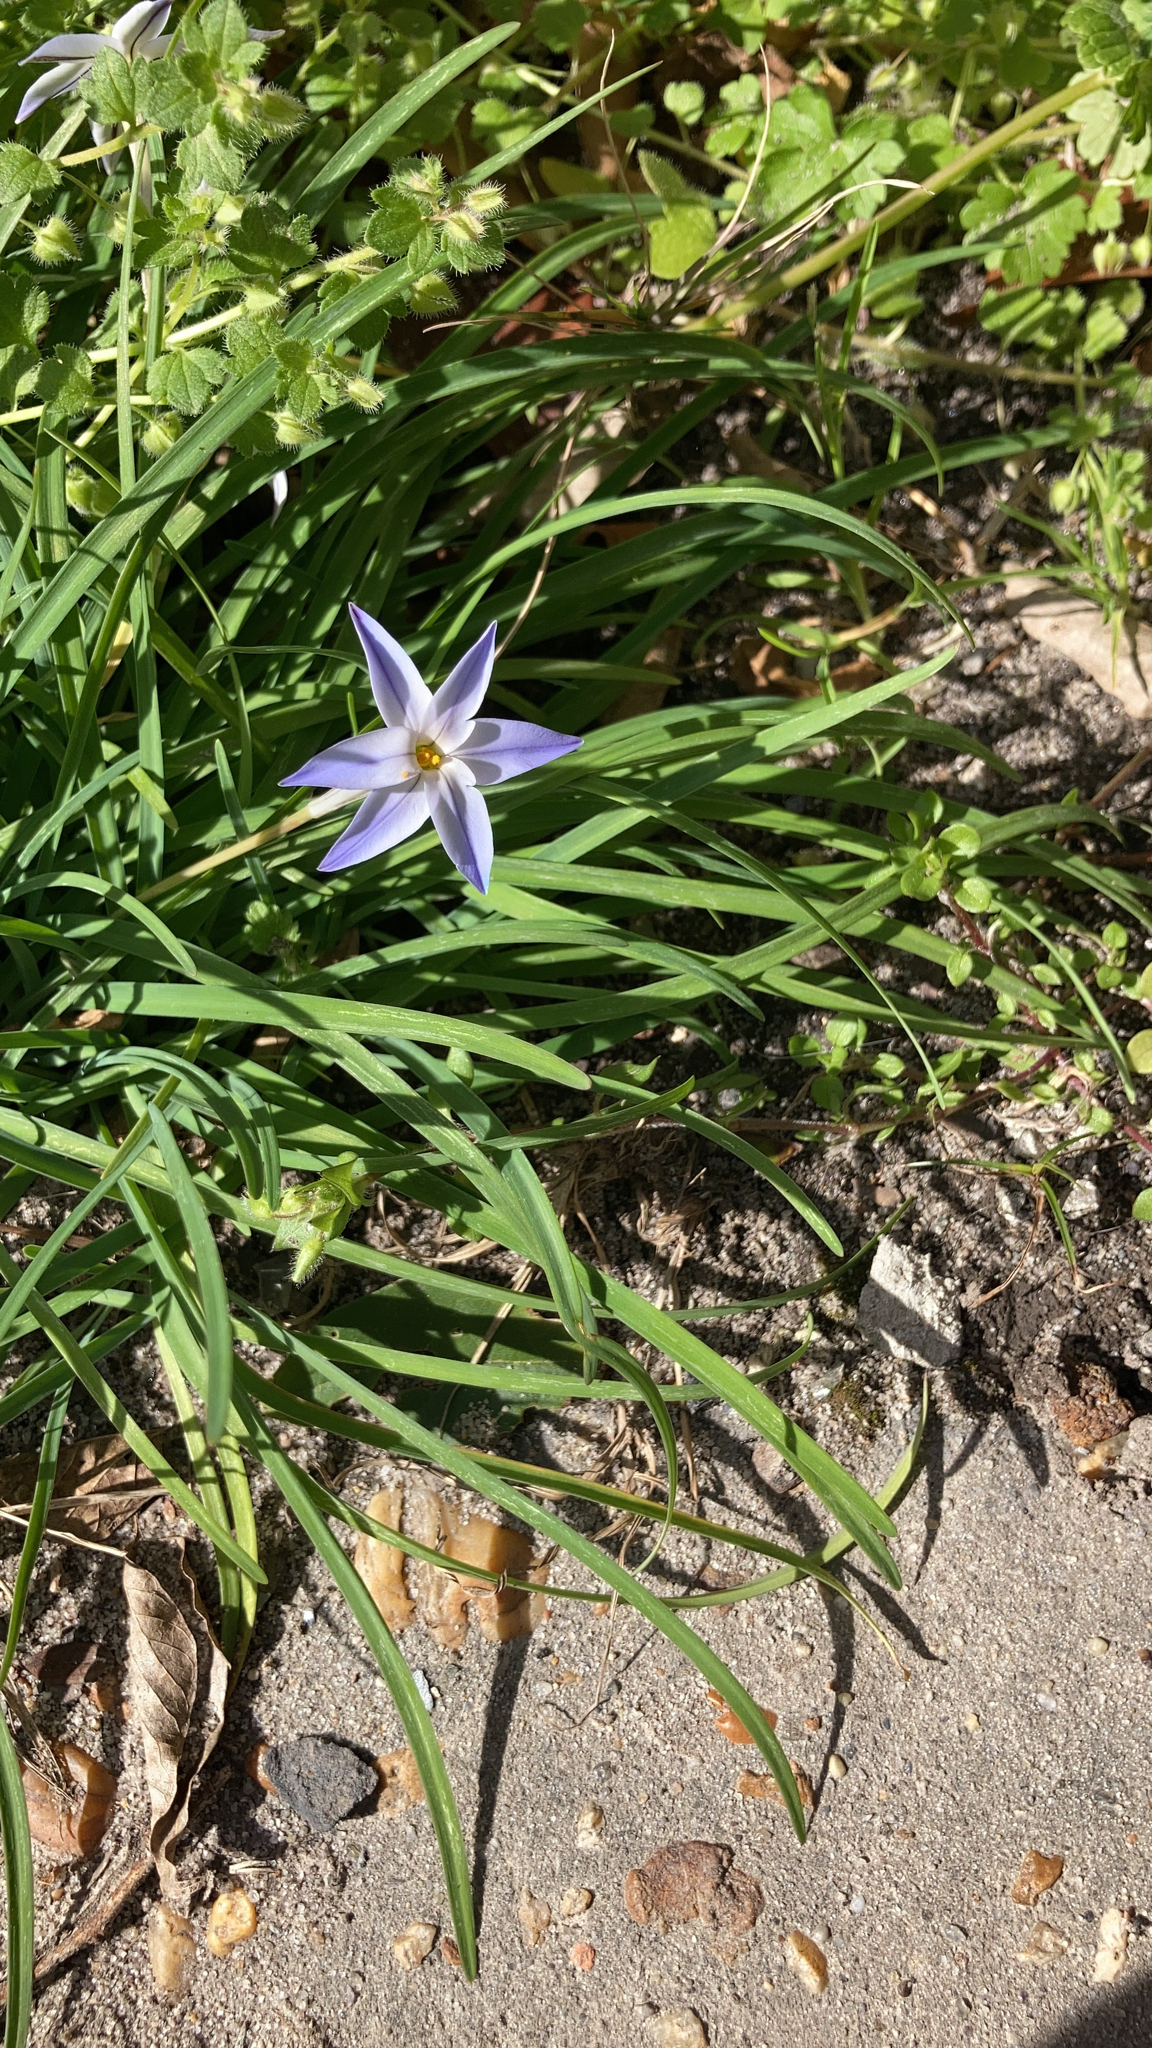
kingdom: Plantae
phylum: Tracheophyta
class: Liliopsida
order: Asparagales
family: Amaryllidaceae
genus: Ipheion
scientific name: Ipheion uniflorum
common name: Spring starflower
